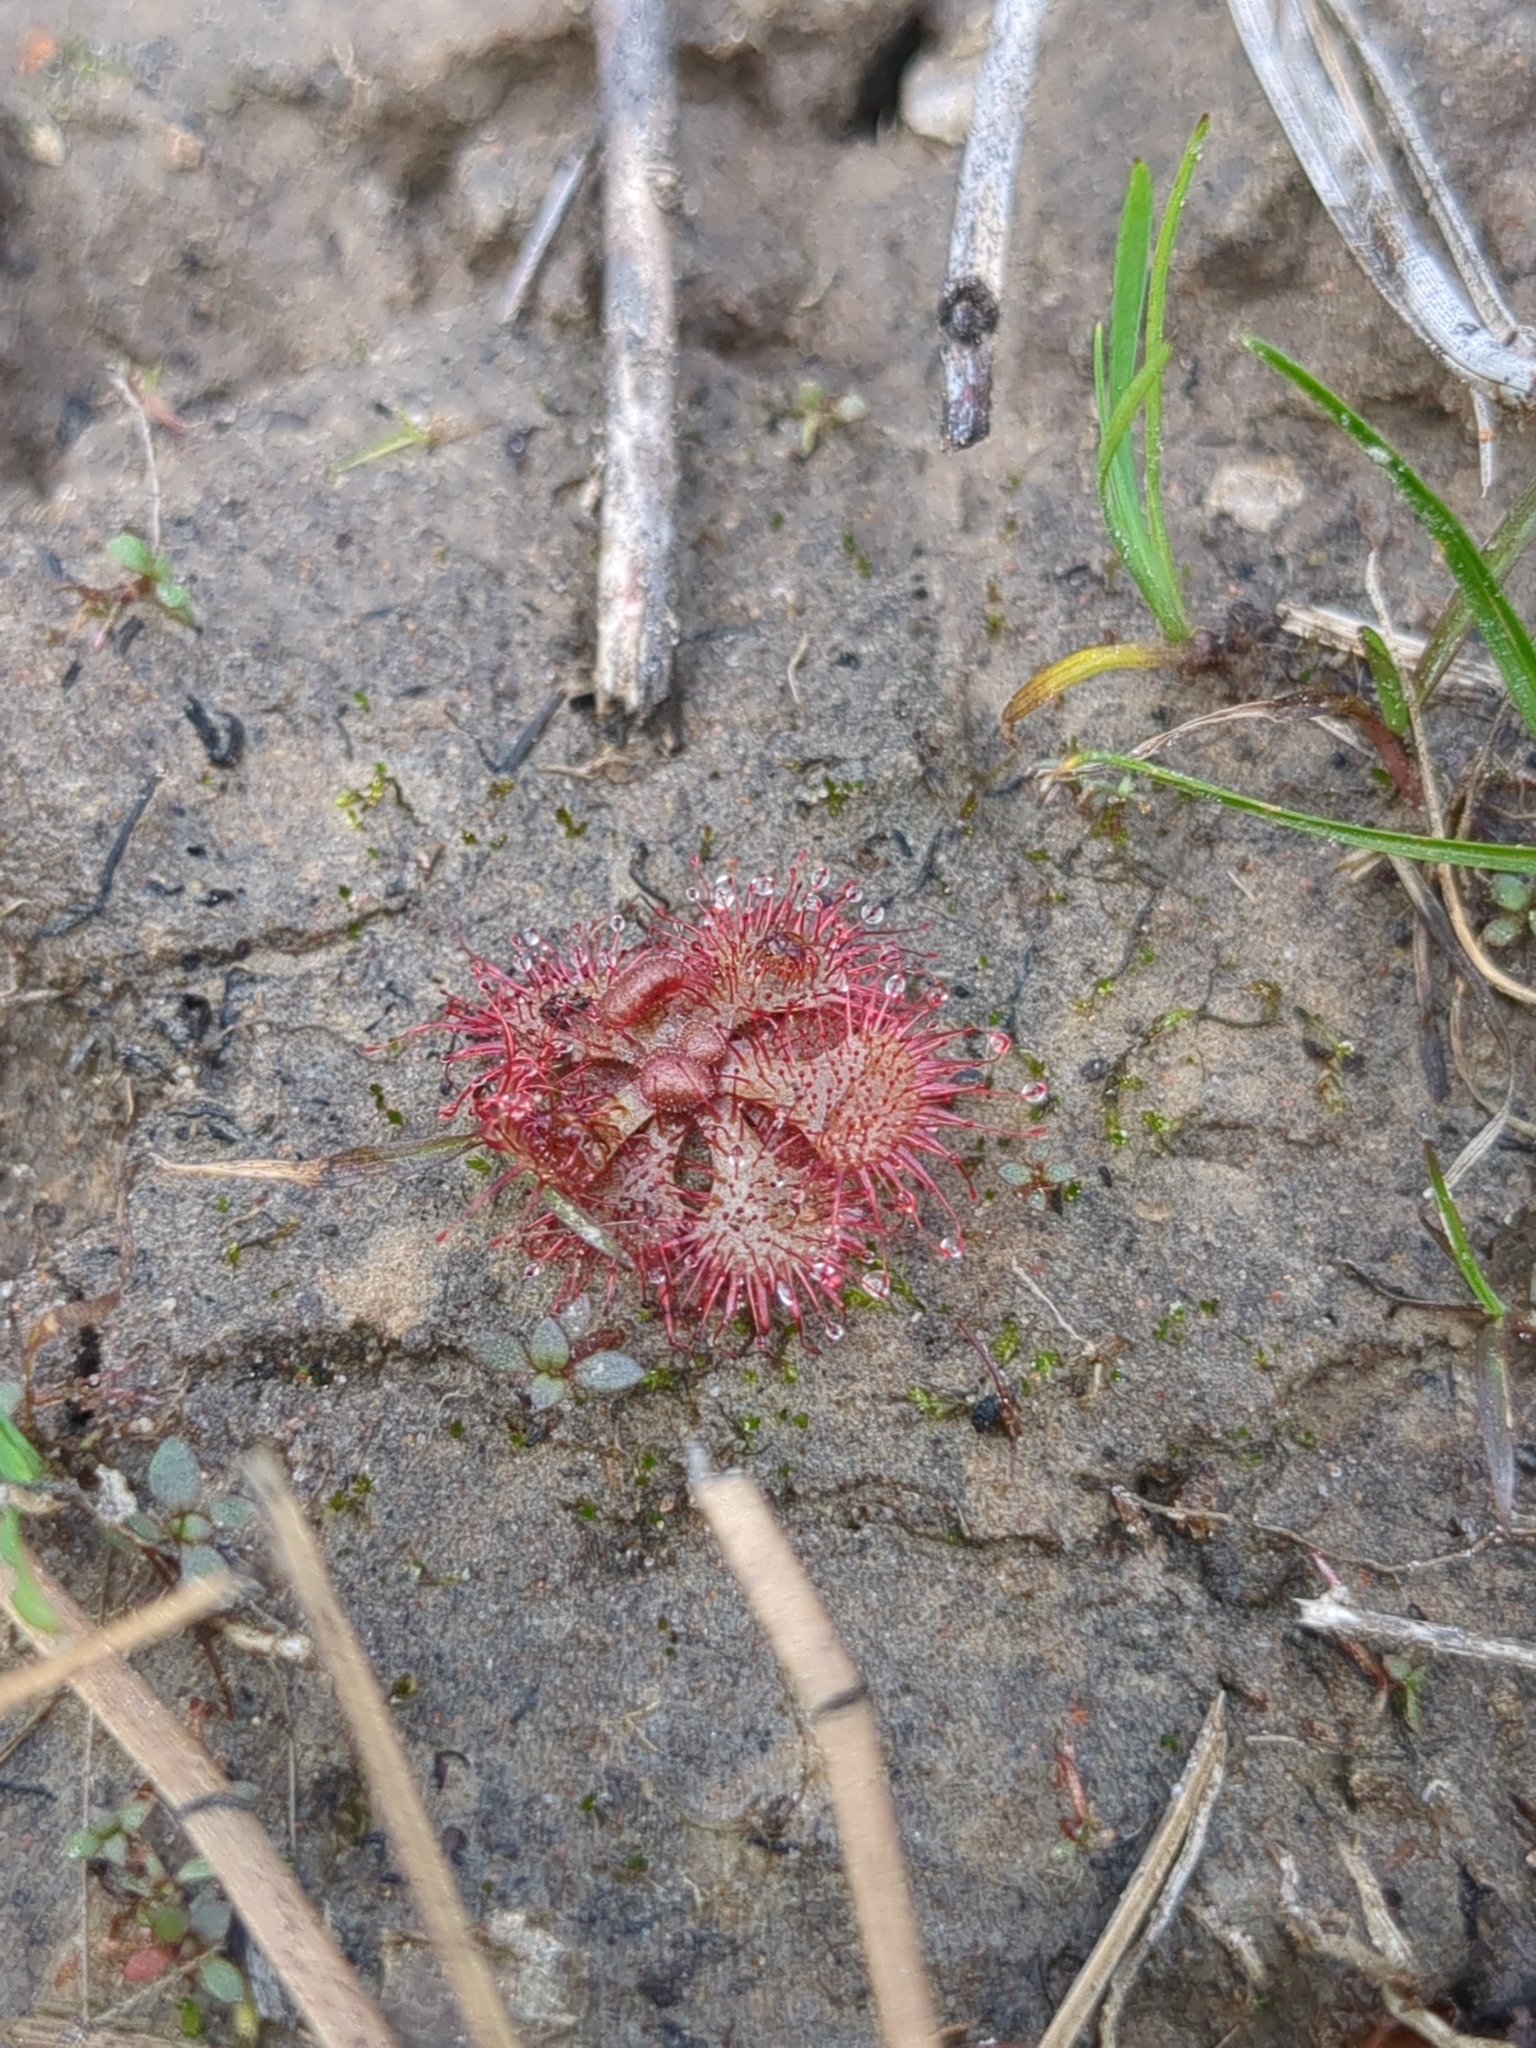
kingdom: Plantae
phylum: Tracheophyta
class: Magnoliopsida
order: Caryophyllales
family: Droseraceae
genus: Drosera
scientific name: Drosera brevifolia
